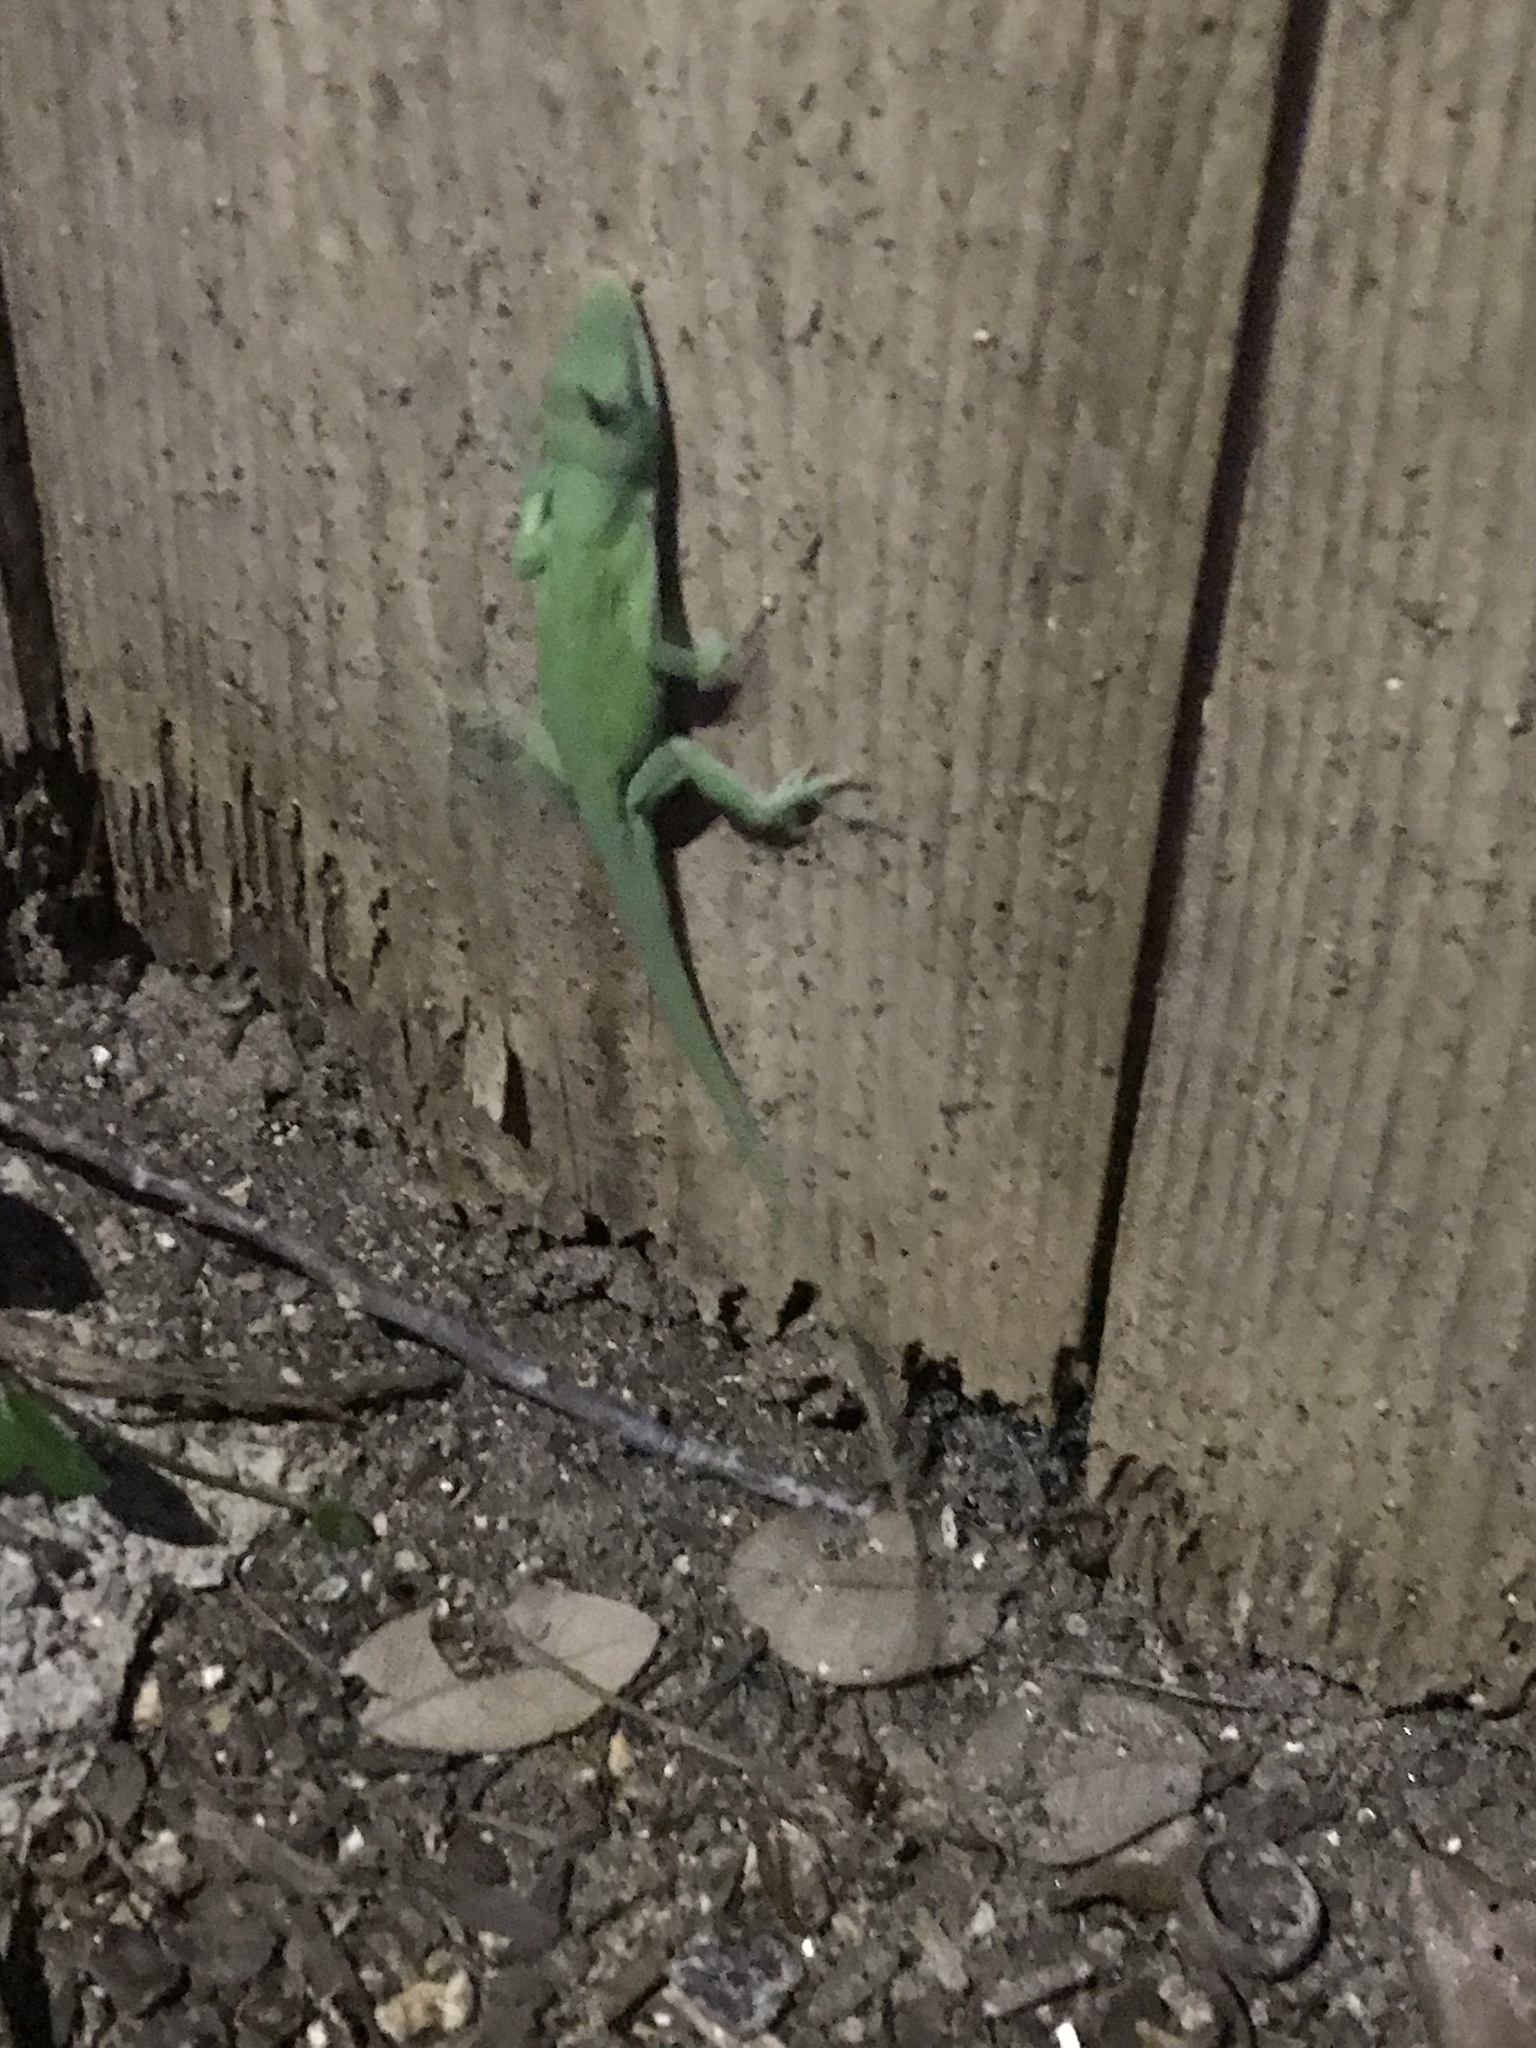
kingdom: Animalia
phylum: Chordata
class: Squamata
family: Dactyloidae
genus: Anolis
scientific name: Anolis carolinensis
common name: Green anole
